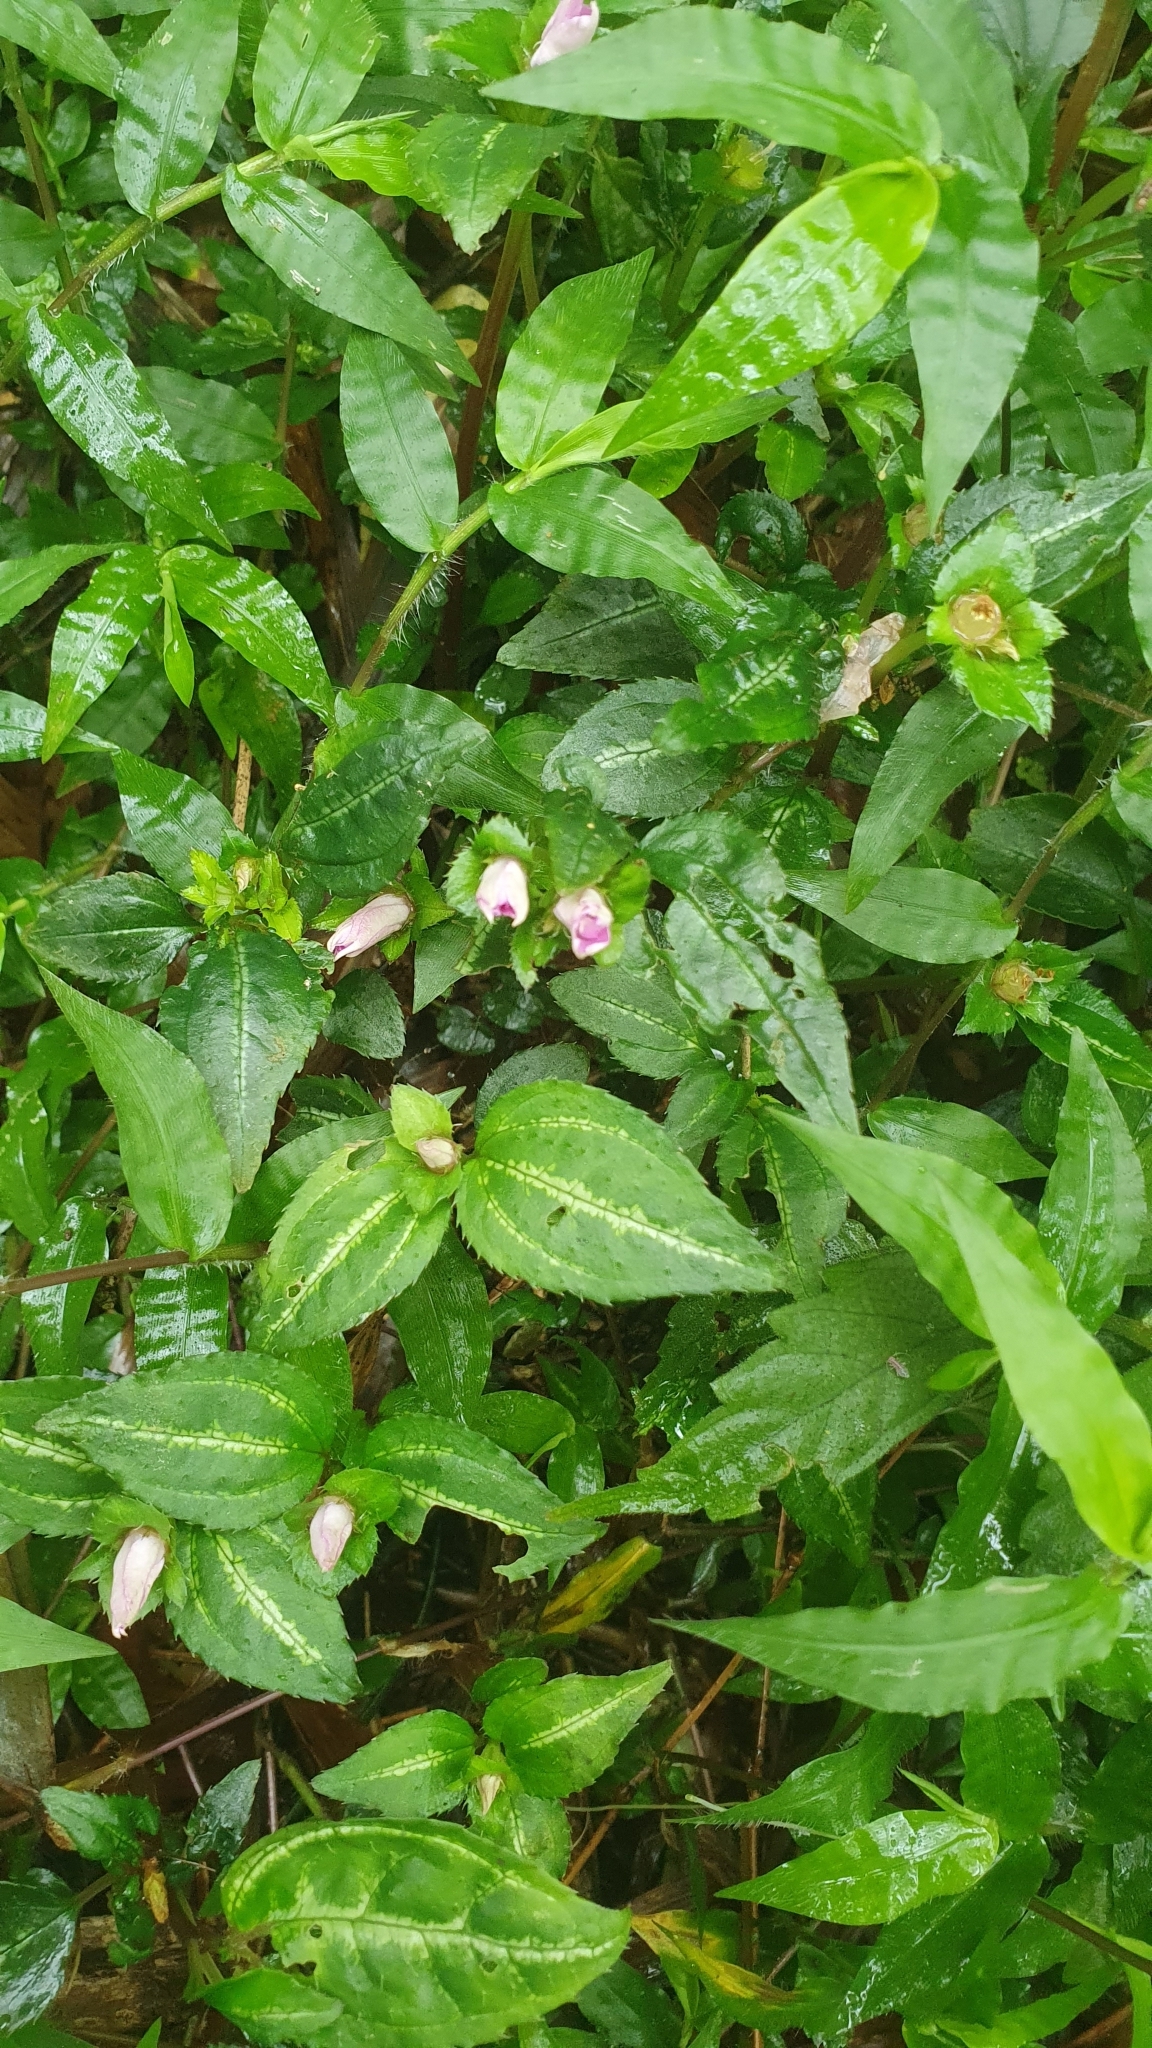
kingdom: Plantae
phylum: Tracheophyta
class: Magnoliopsida
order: Myrtales
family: Melastomataceae
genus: Sarcopyramis
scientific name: Sarcopyramis napalensis
